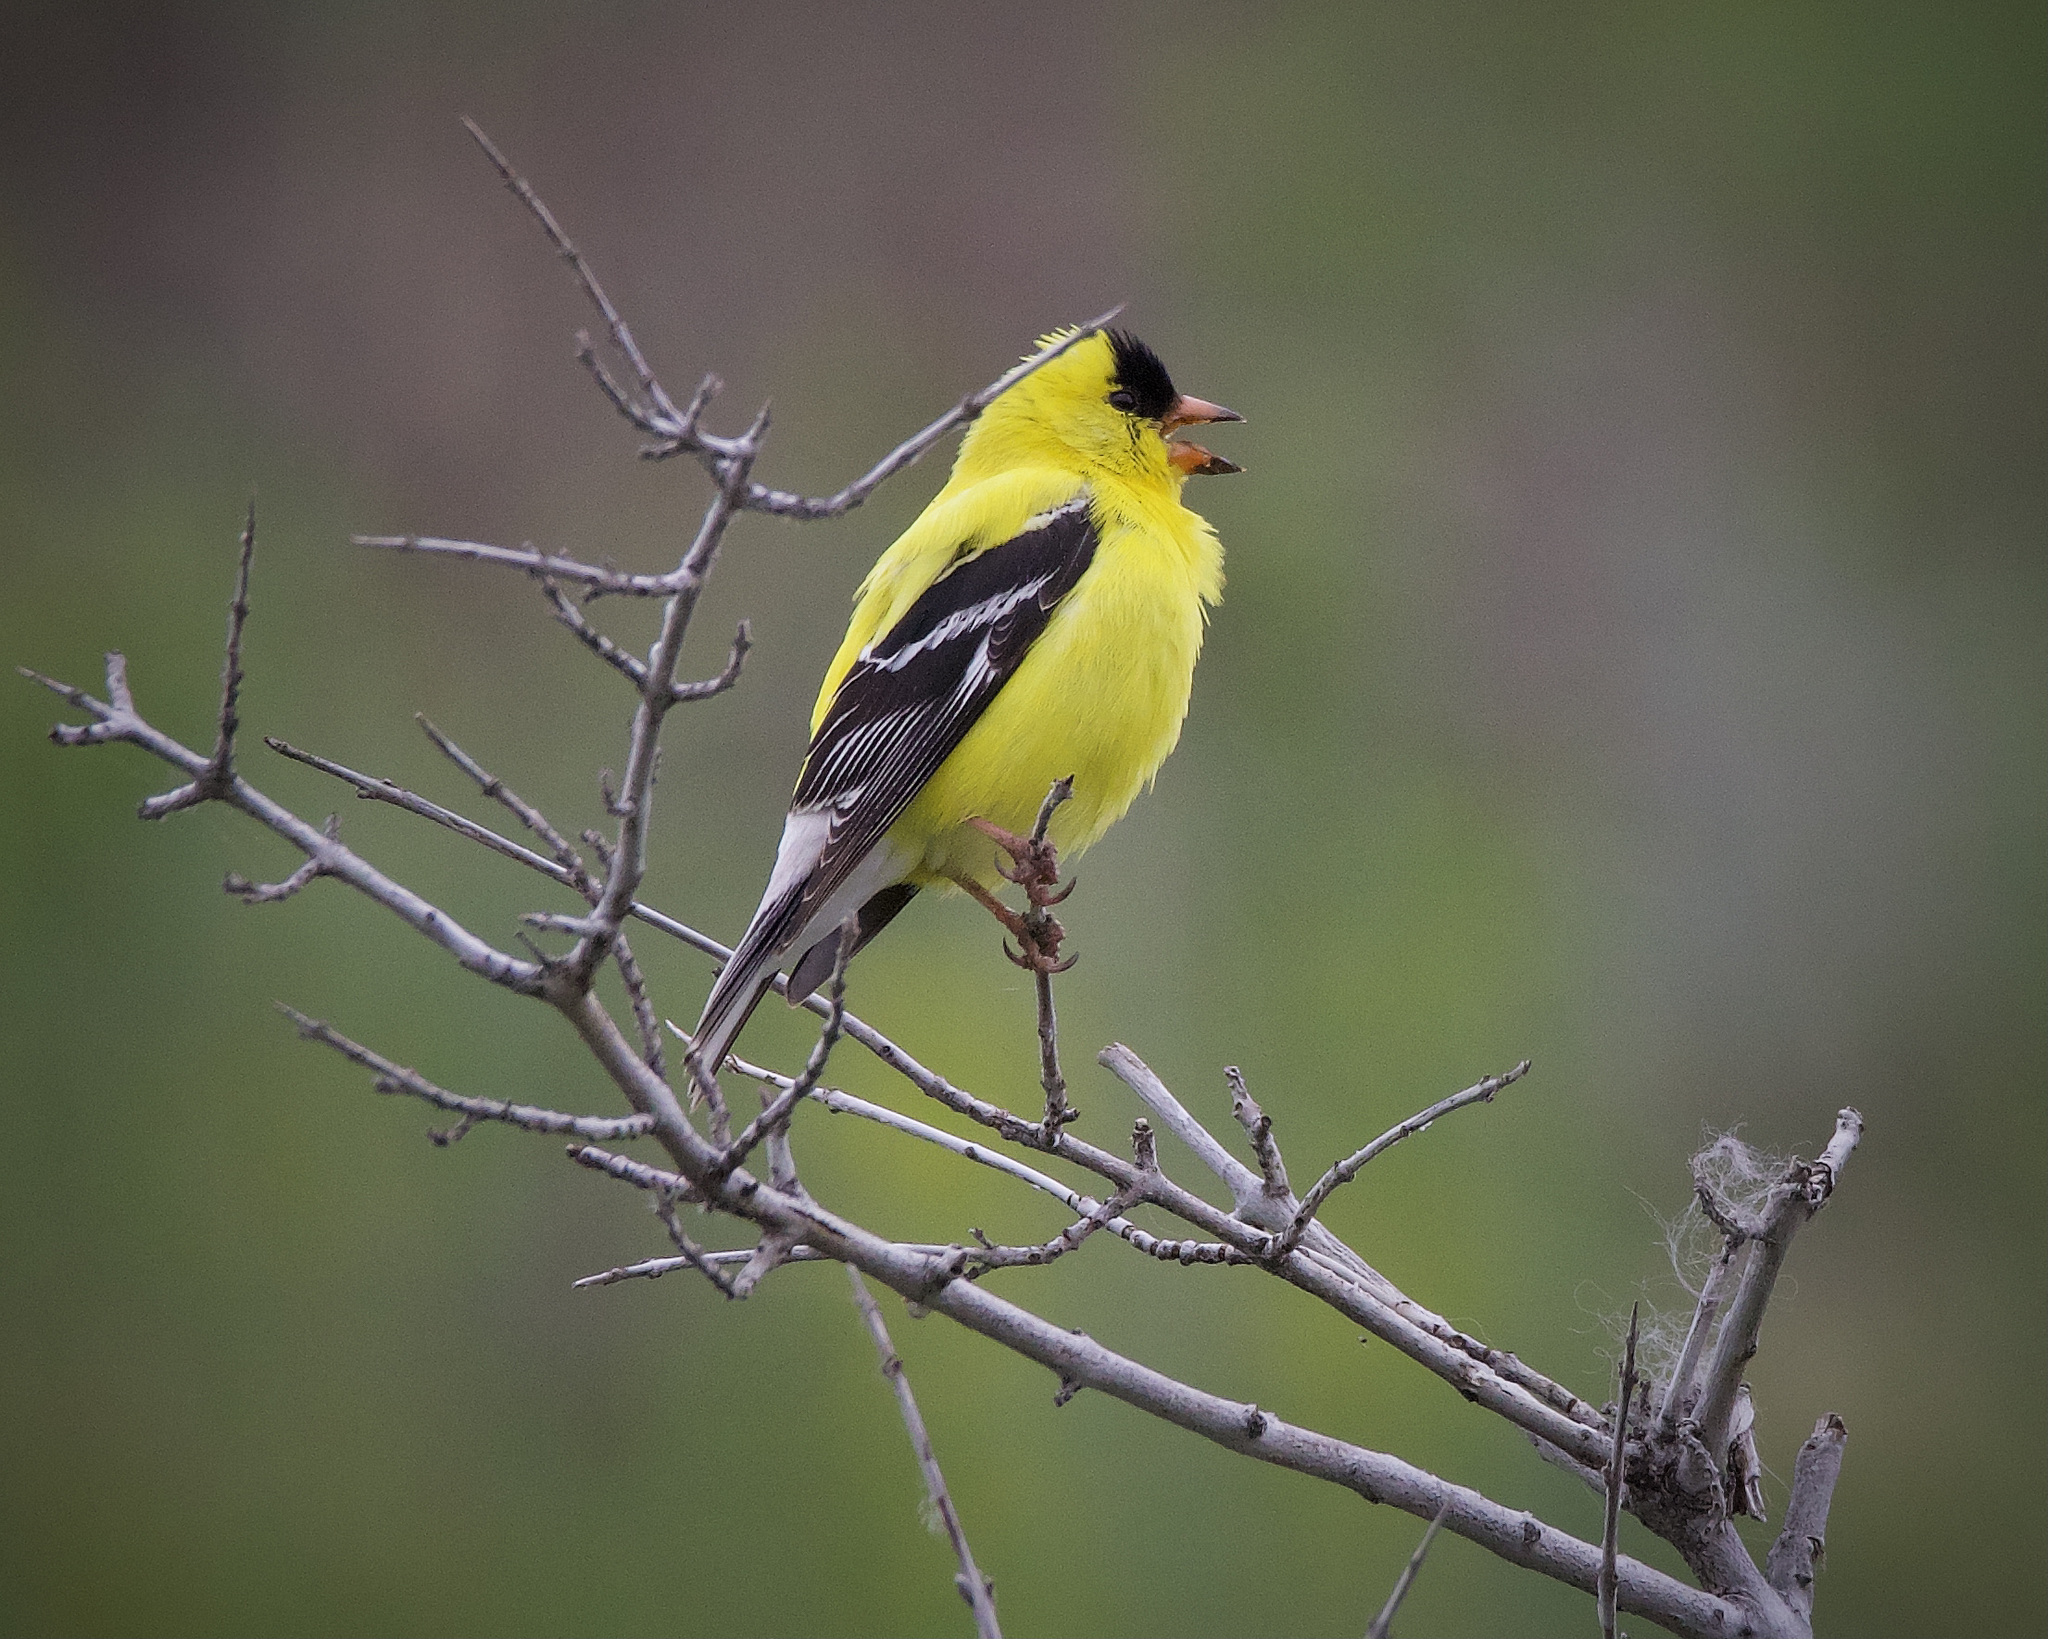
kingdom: Animalia
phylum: Chordata
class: Aves
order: Passeriformes
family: Fringillidae
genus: Spinus
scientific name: Spinus tristis
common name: American goldfinch
